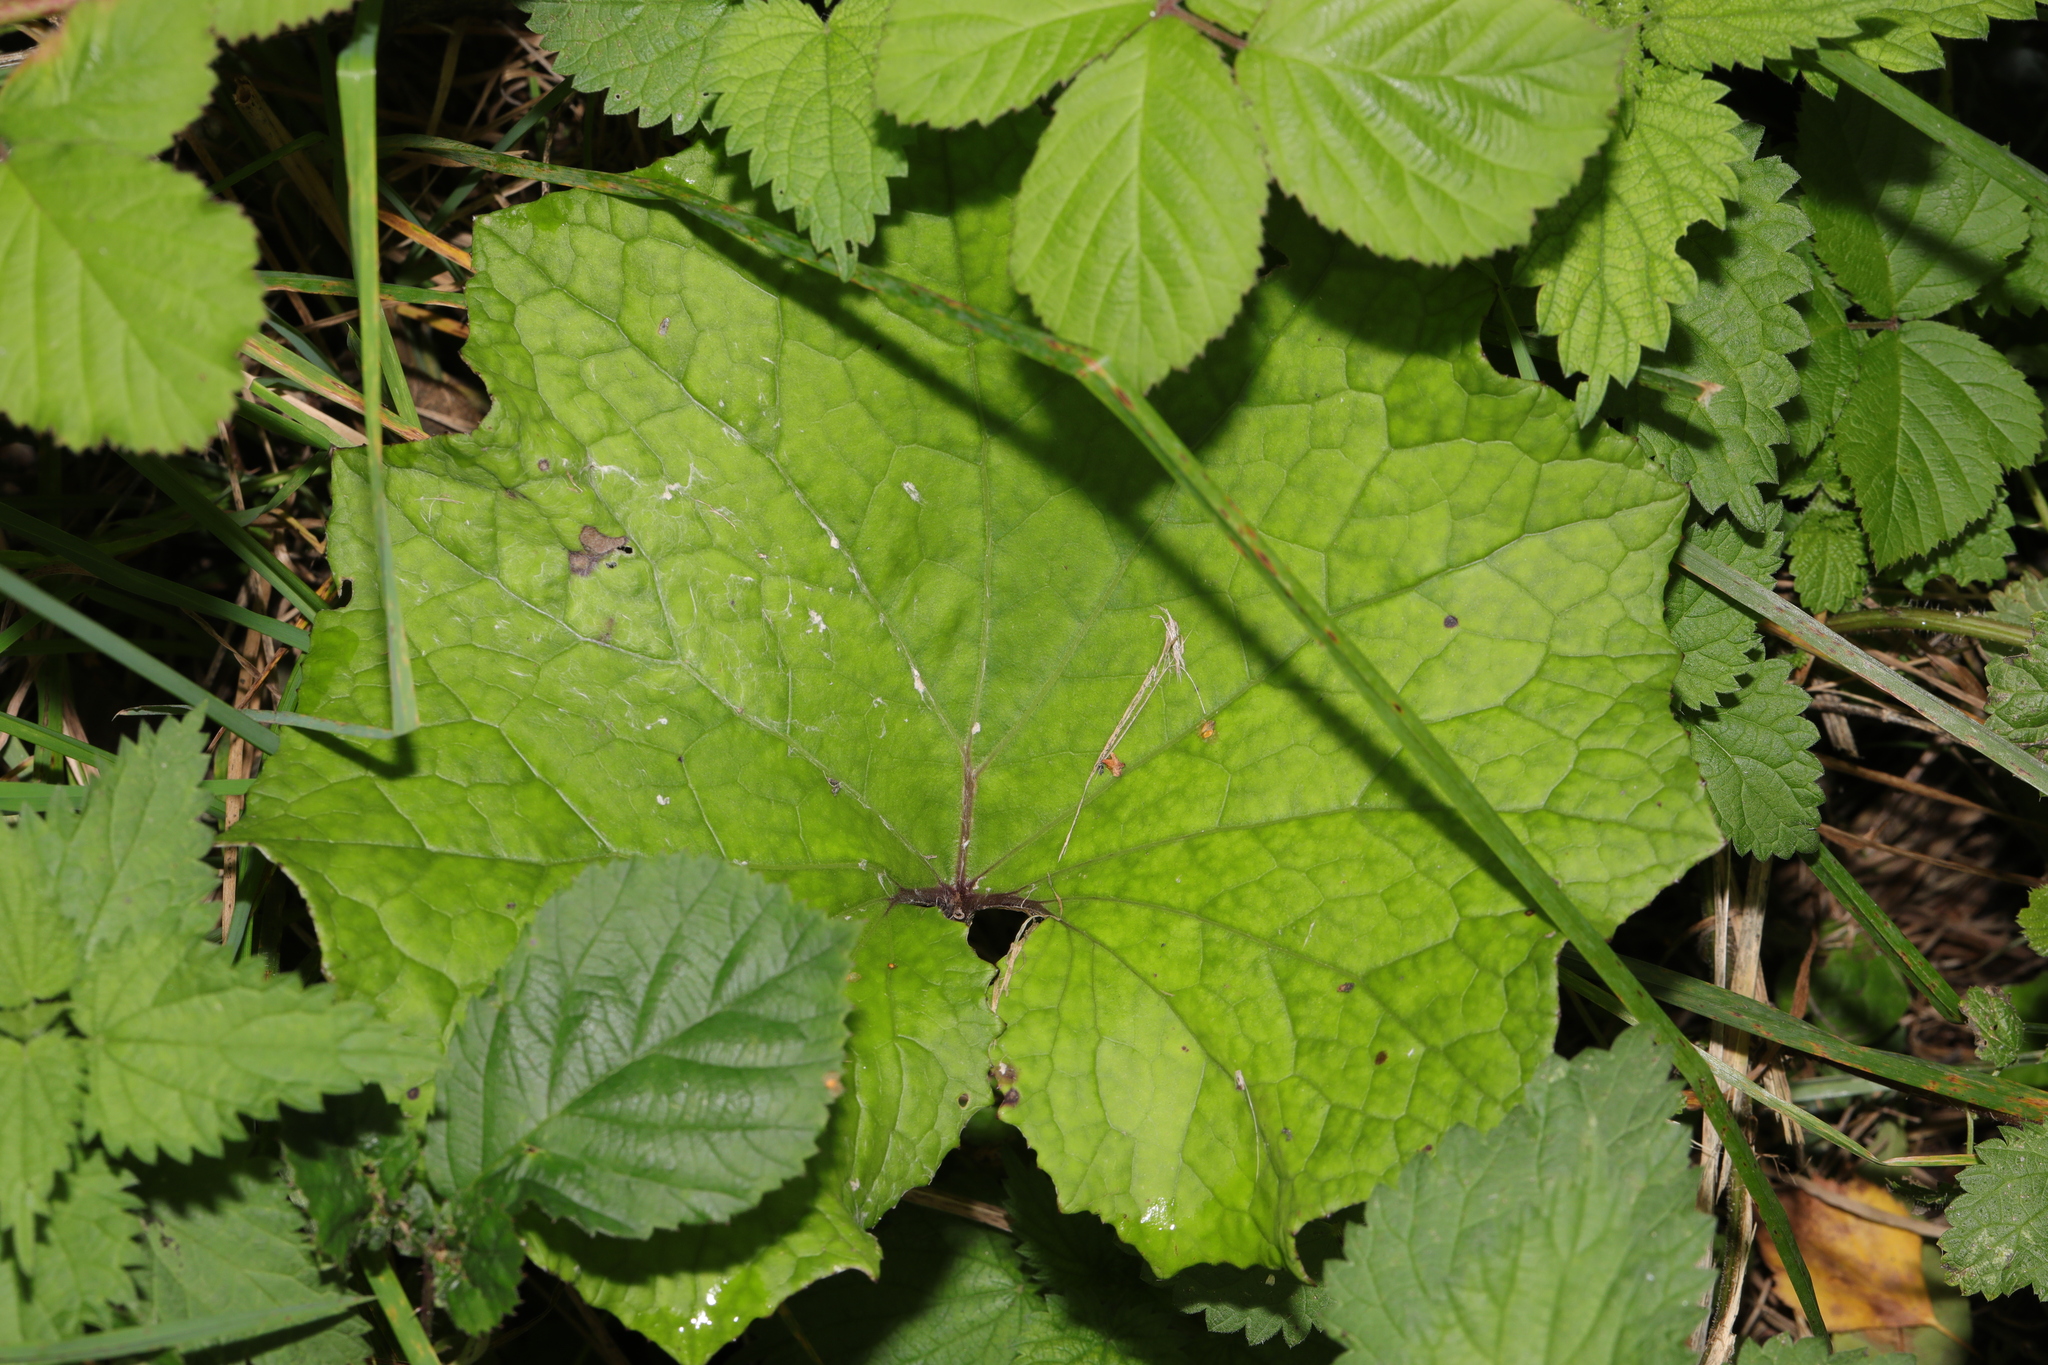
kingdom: Plantae
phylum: Tracheophyta
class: Magnoliopsida
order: Asterales
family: Asteraceae
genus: Tussilago
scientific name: Tussilago farfara
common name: Coltsfoot
